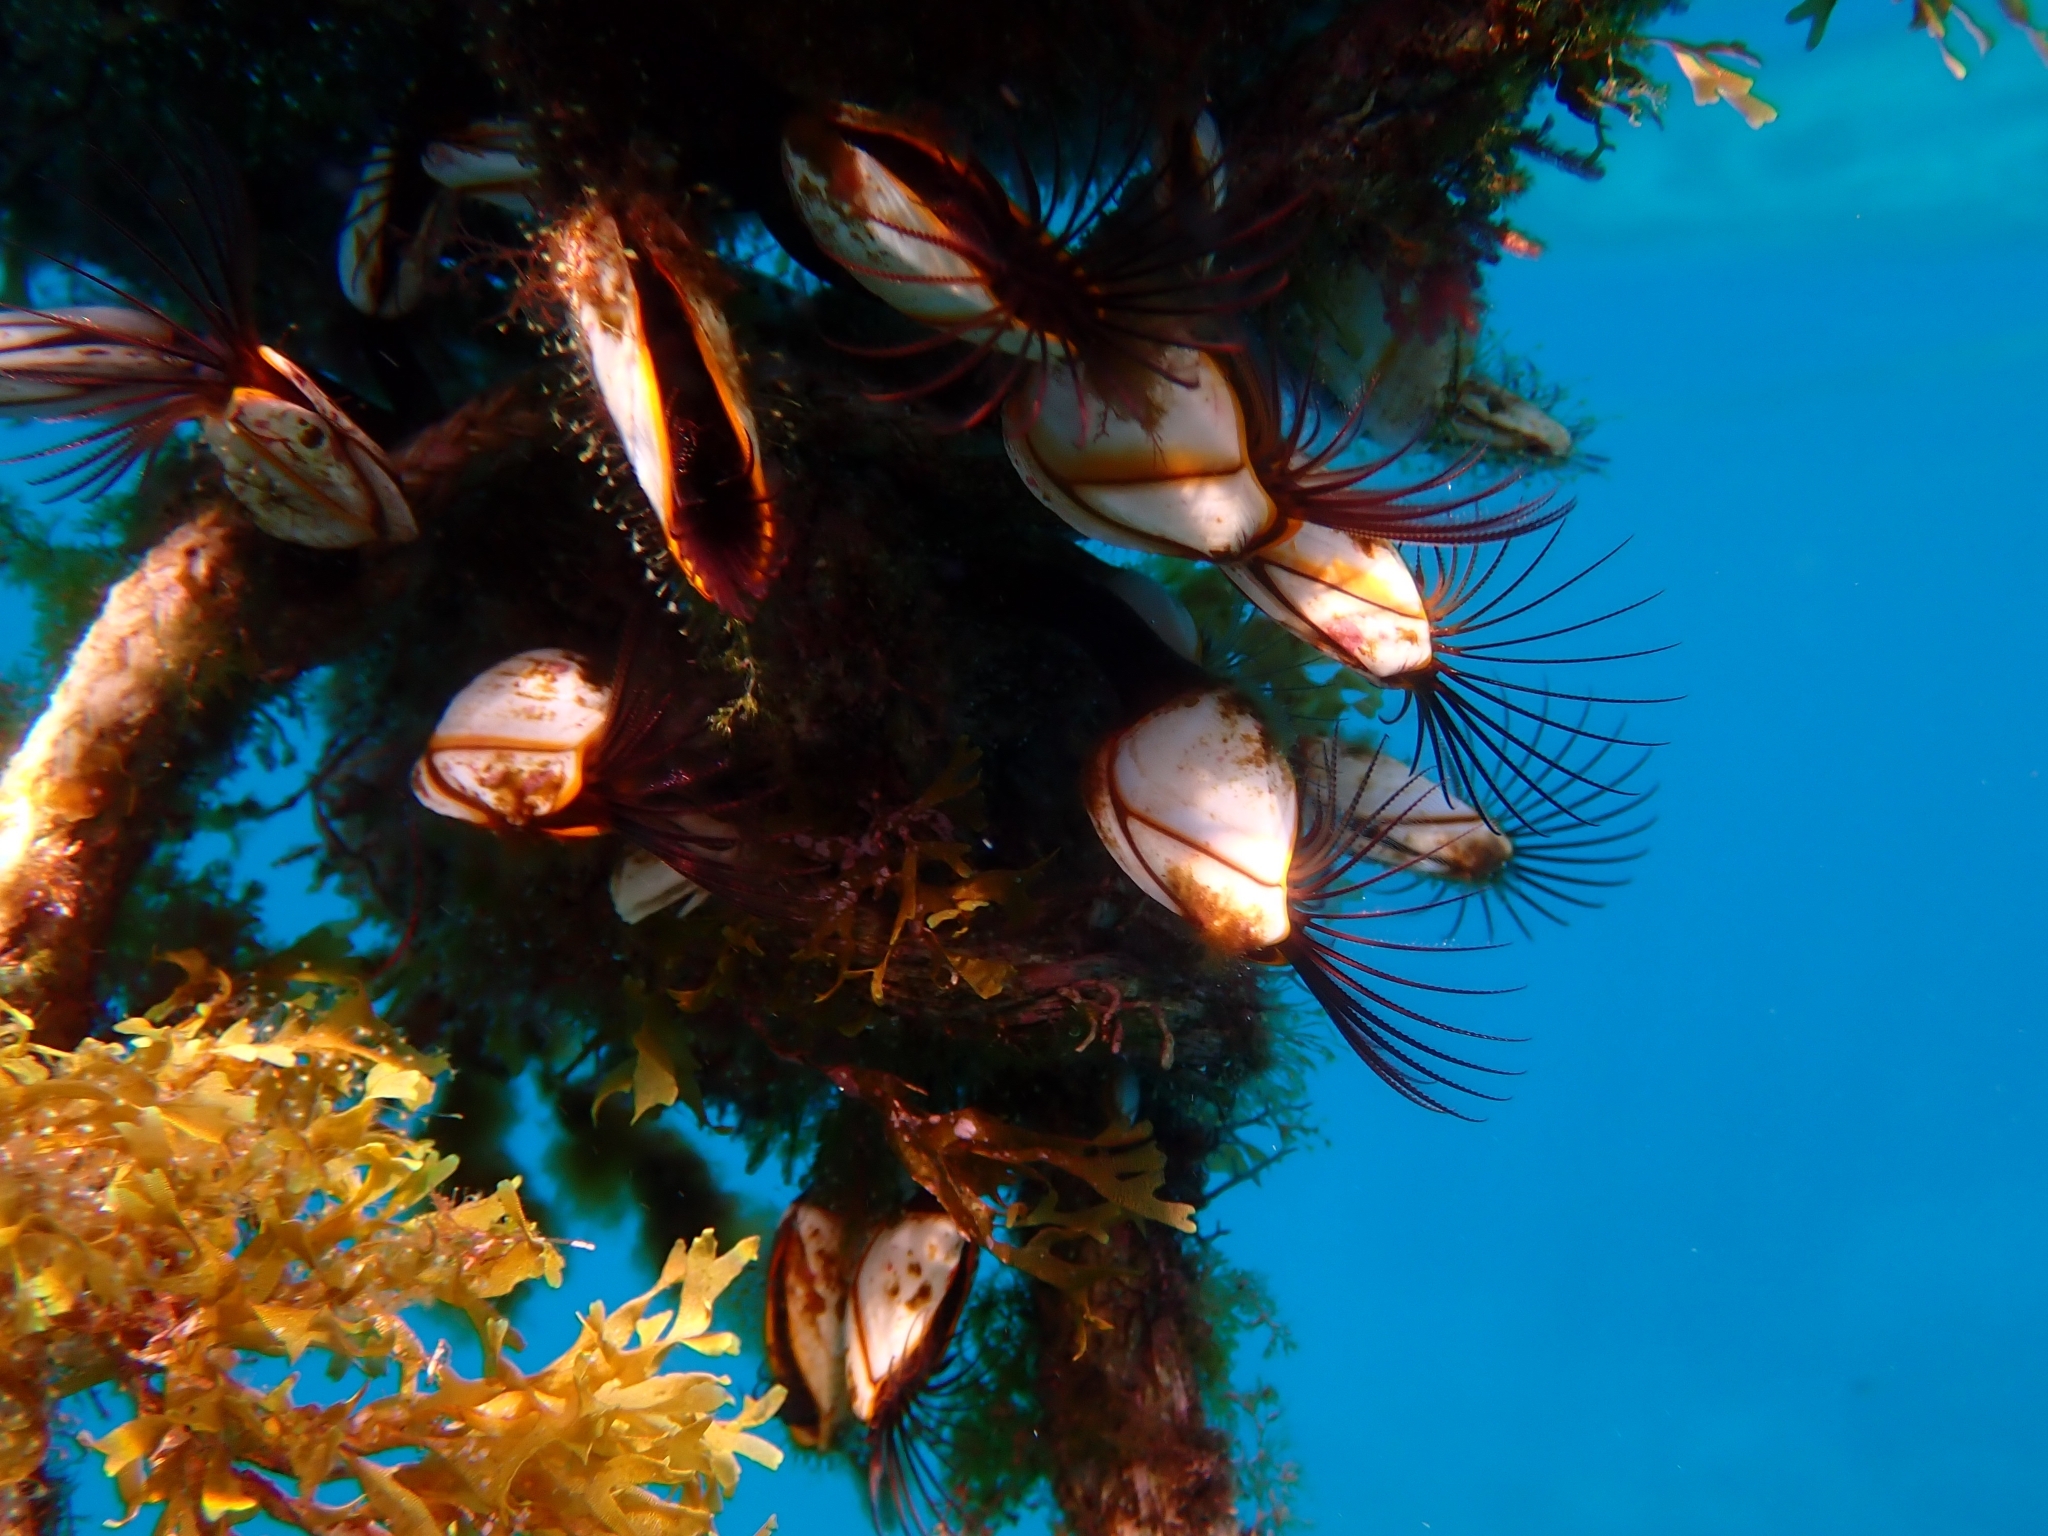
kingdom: Animalia
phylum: Arthropoda
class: Maxillopoda
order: Pedunculata
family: Lepadidae
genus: Lepas
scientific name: Lepas indica
